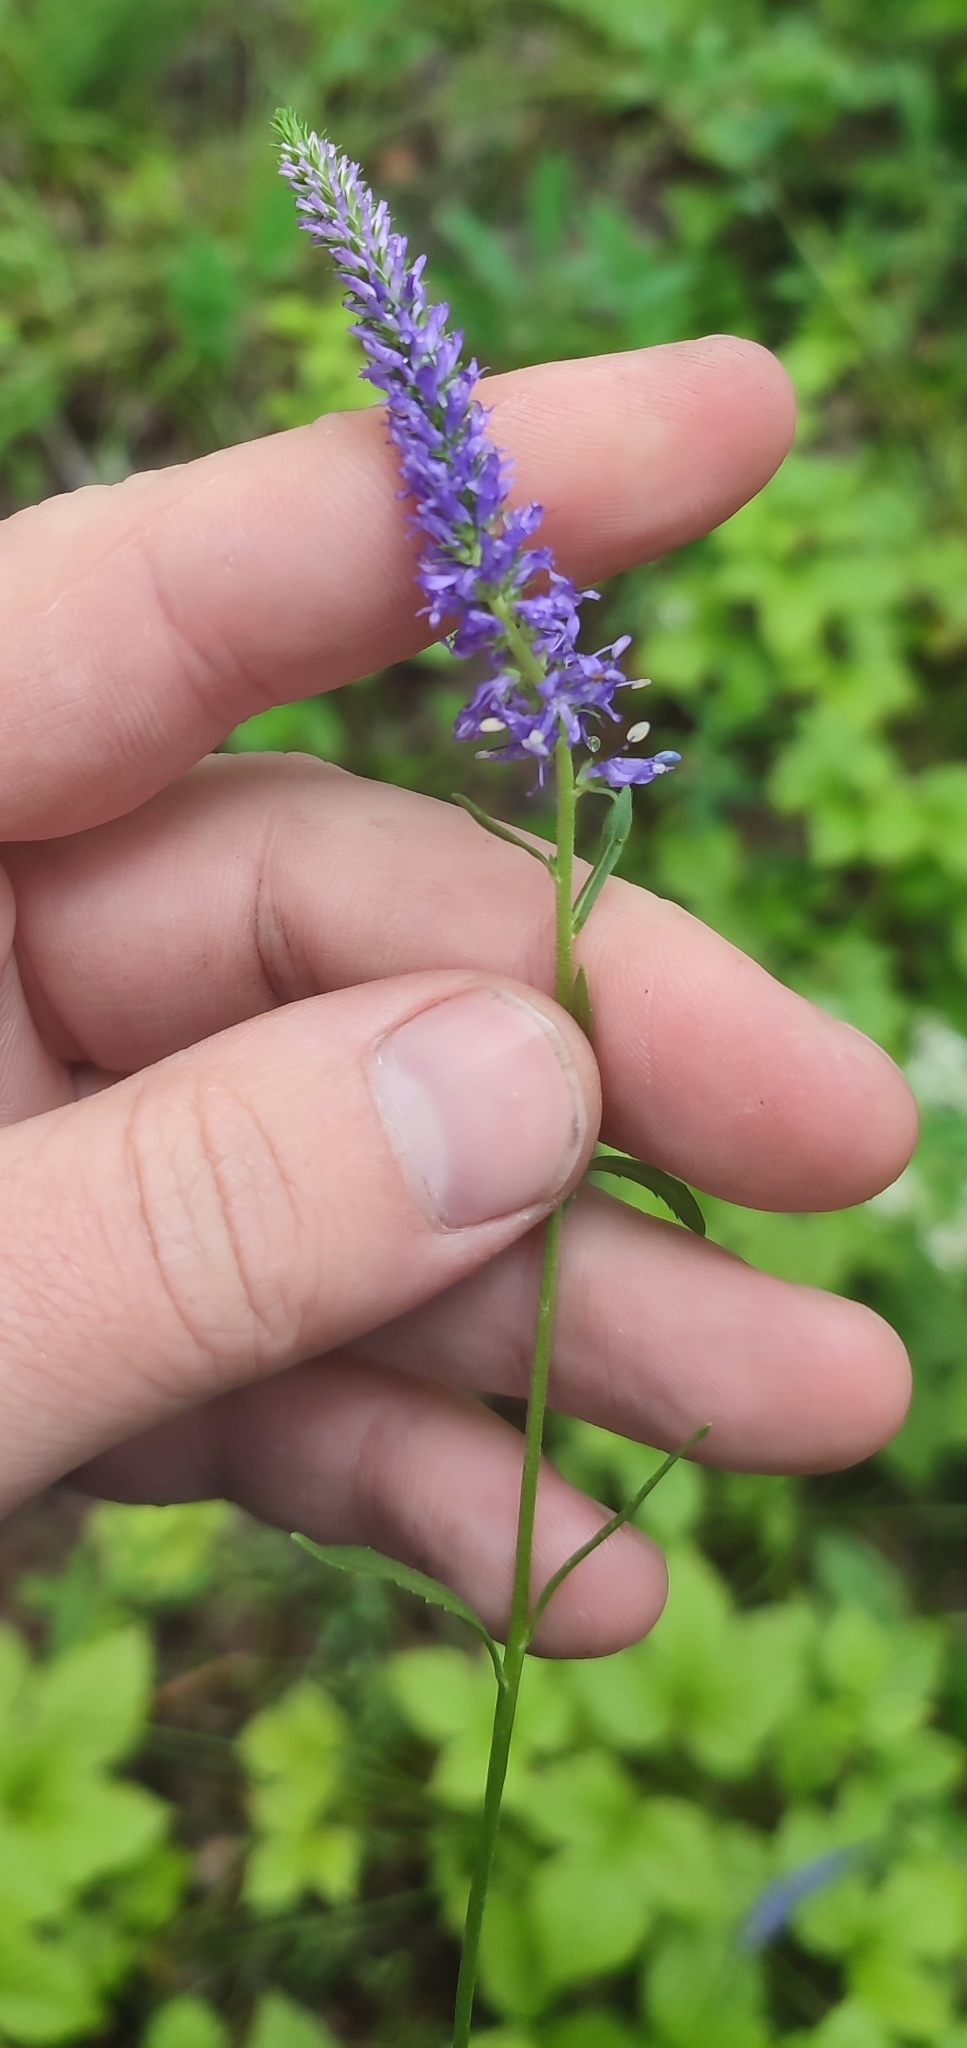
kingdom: Plantae
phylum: Tracheophyta
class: Magnoliopsida
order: Lamiales
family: Plantaginaceae
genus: Veronica
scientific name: Veronica spicata
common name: Spiked speedwell
